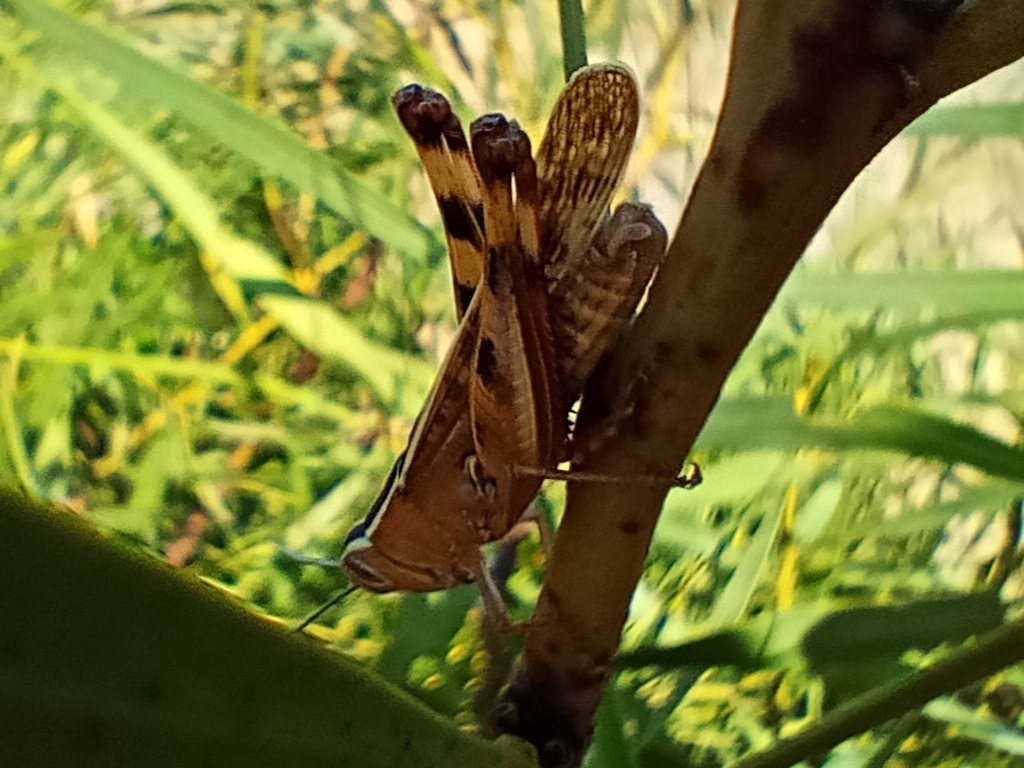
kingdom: Animalia
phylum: Arthropoda
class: Insecta
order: Orthoptera
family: Acrididae
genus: Heteracris
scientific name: Heteracris littoralis
